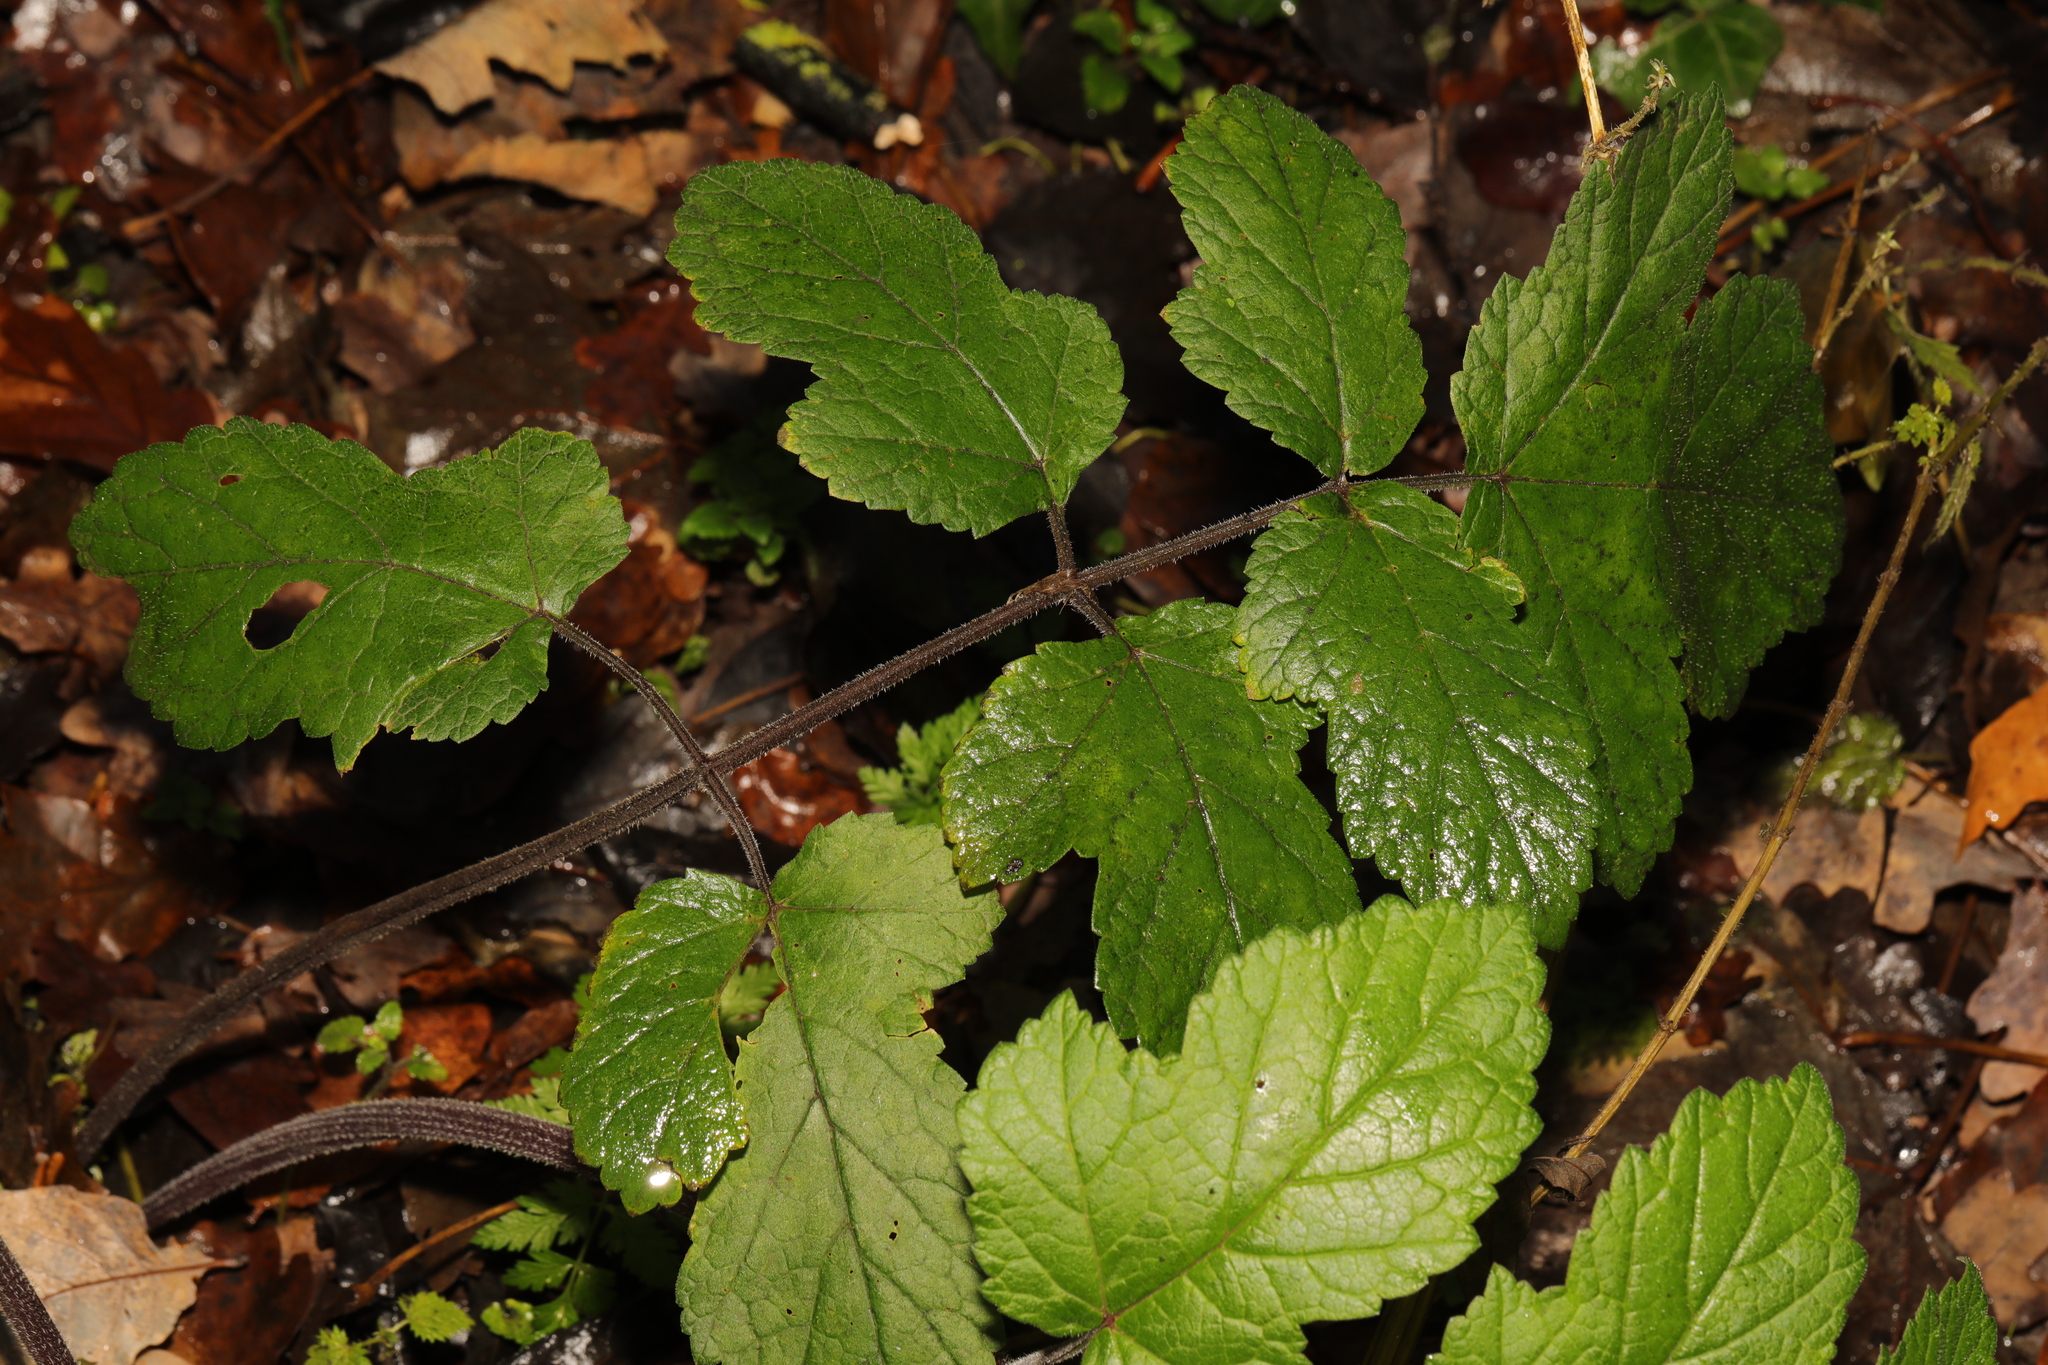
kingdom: Plantae
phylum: Tracheophyta
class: Magnoliopsida
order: Apiales
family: Apiaceae
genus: Heracleum
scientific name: Heracleum sphondylium
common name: Hogweed
